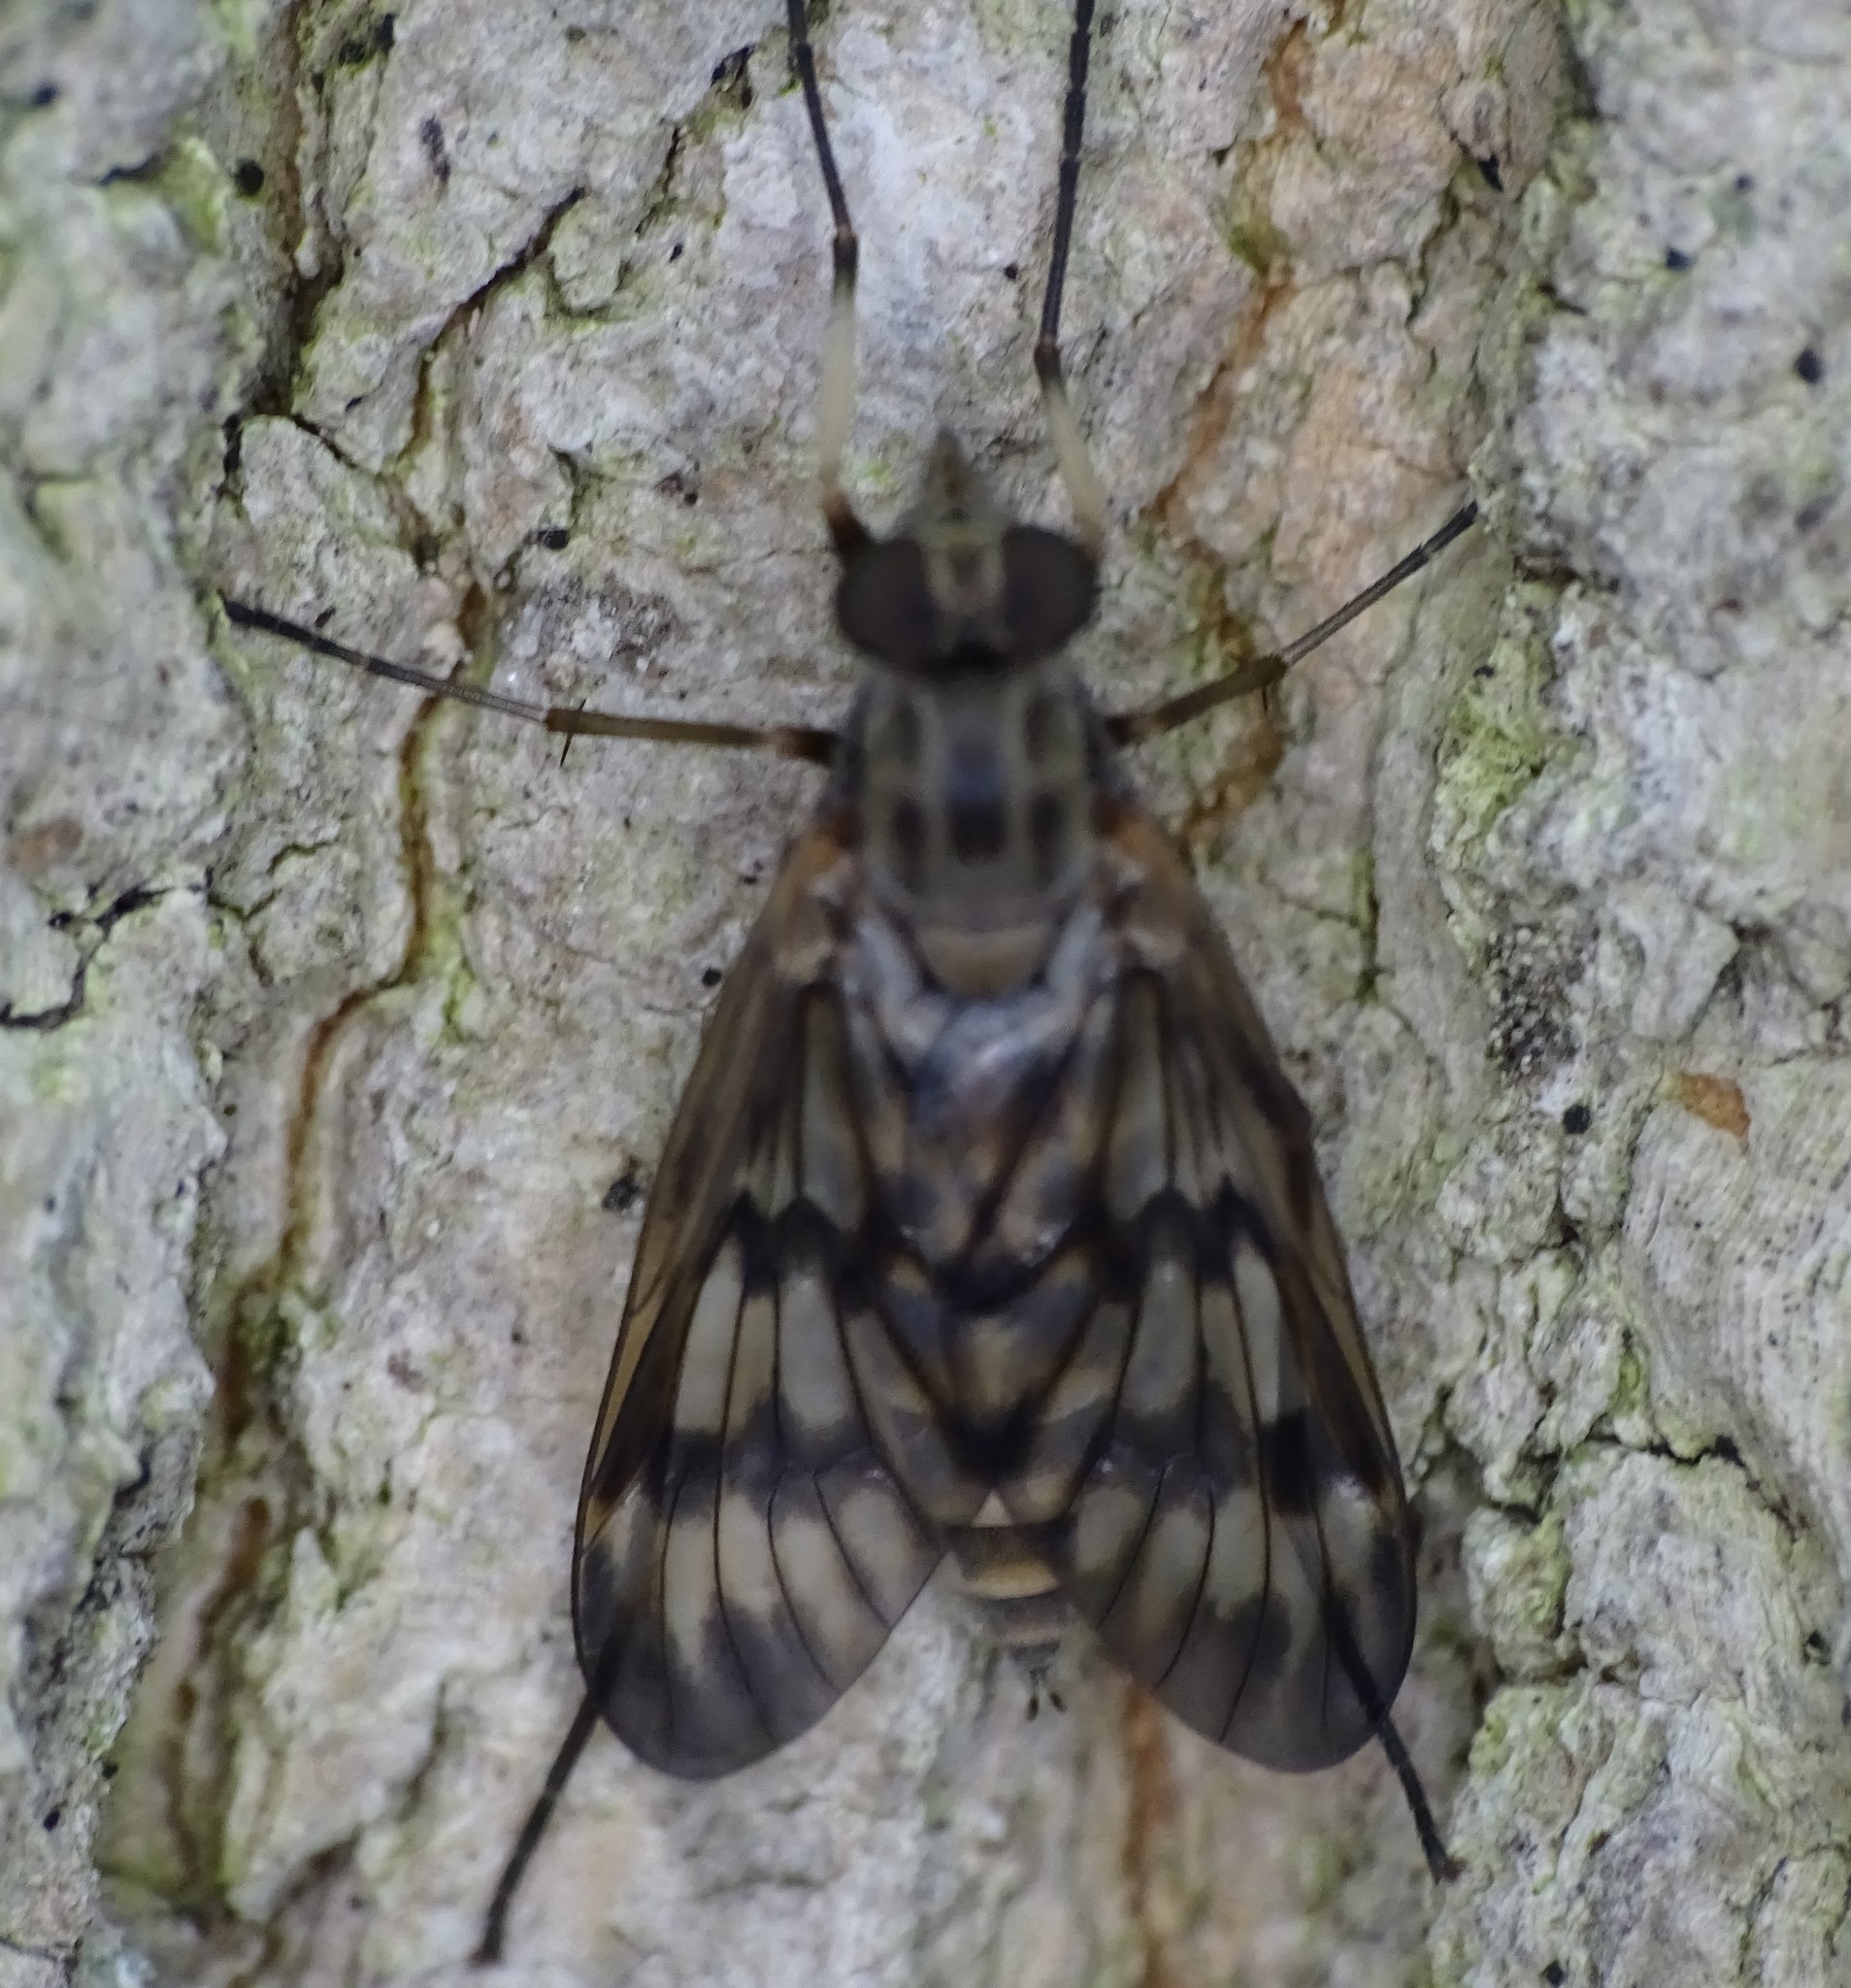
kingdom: Animalia
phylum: Arthropoda
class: Insecta
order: Diptera
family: Rhagionidae
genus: Rhagio
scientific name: Rhagio mystaceus
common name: Common snipe fly
